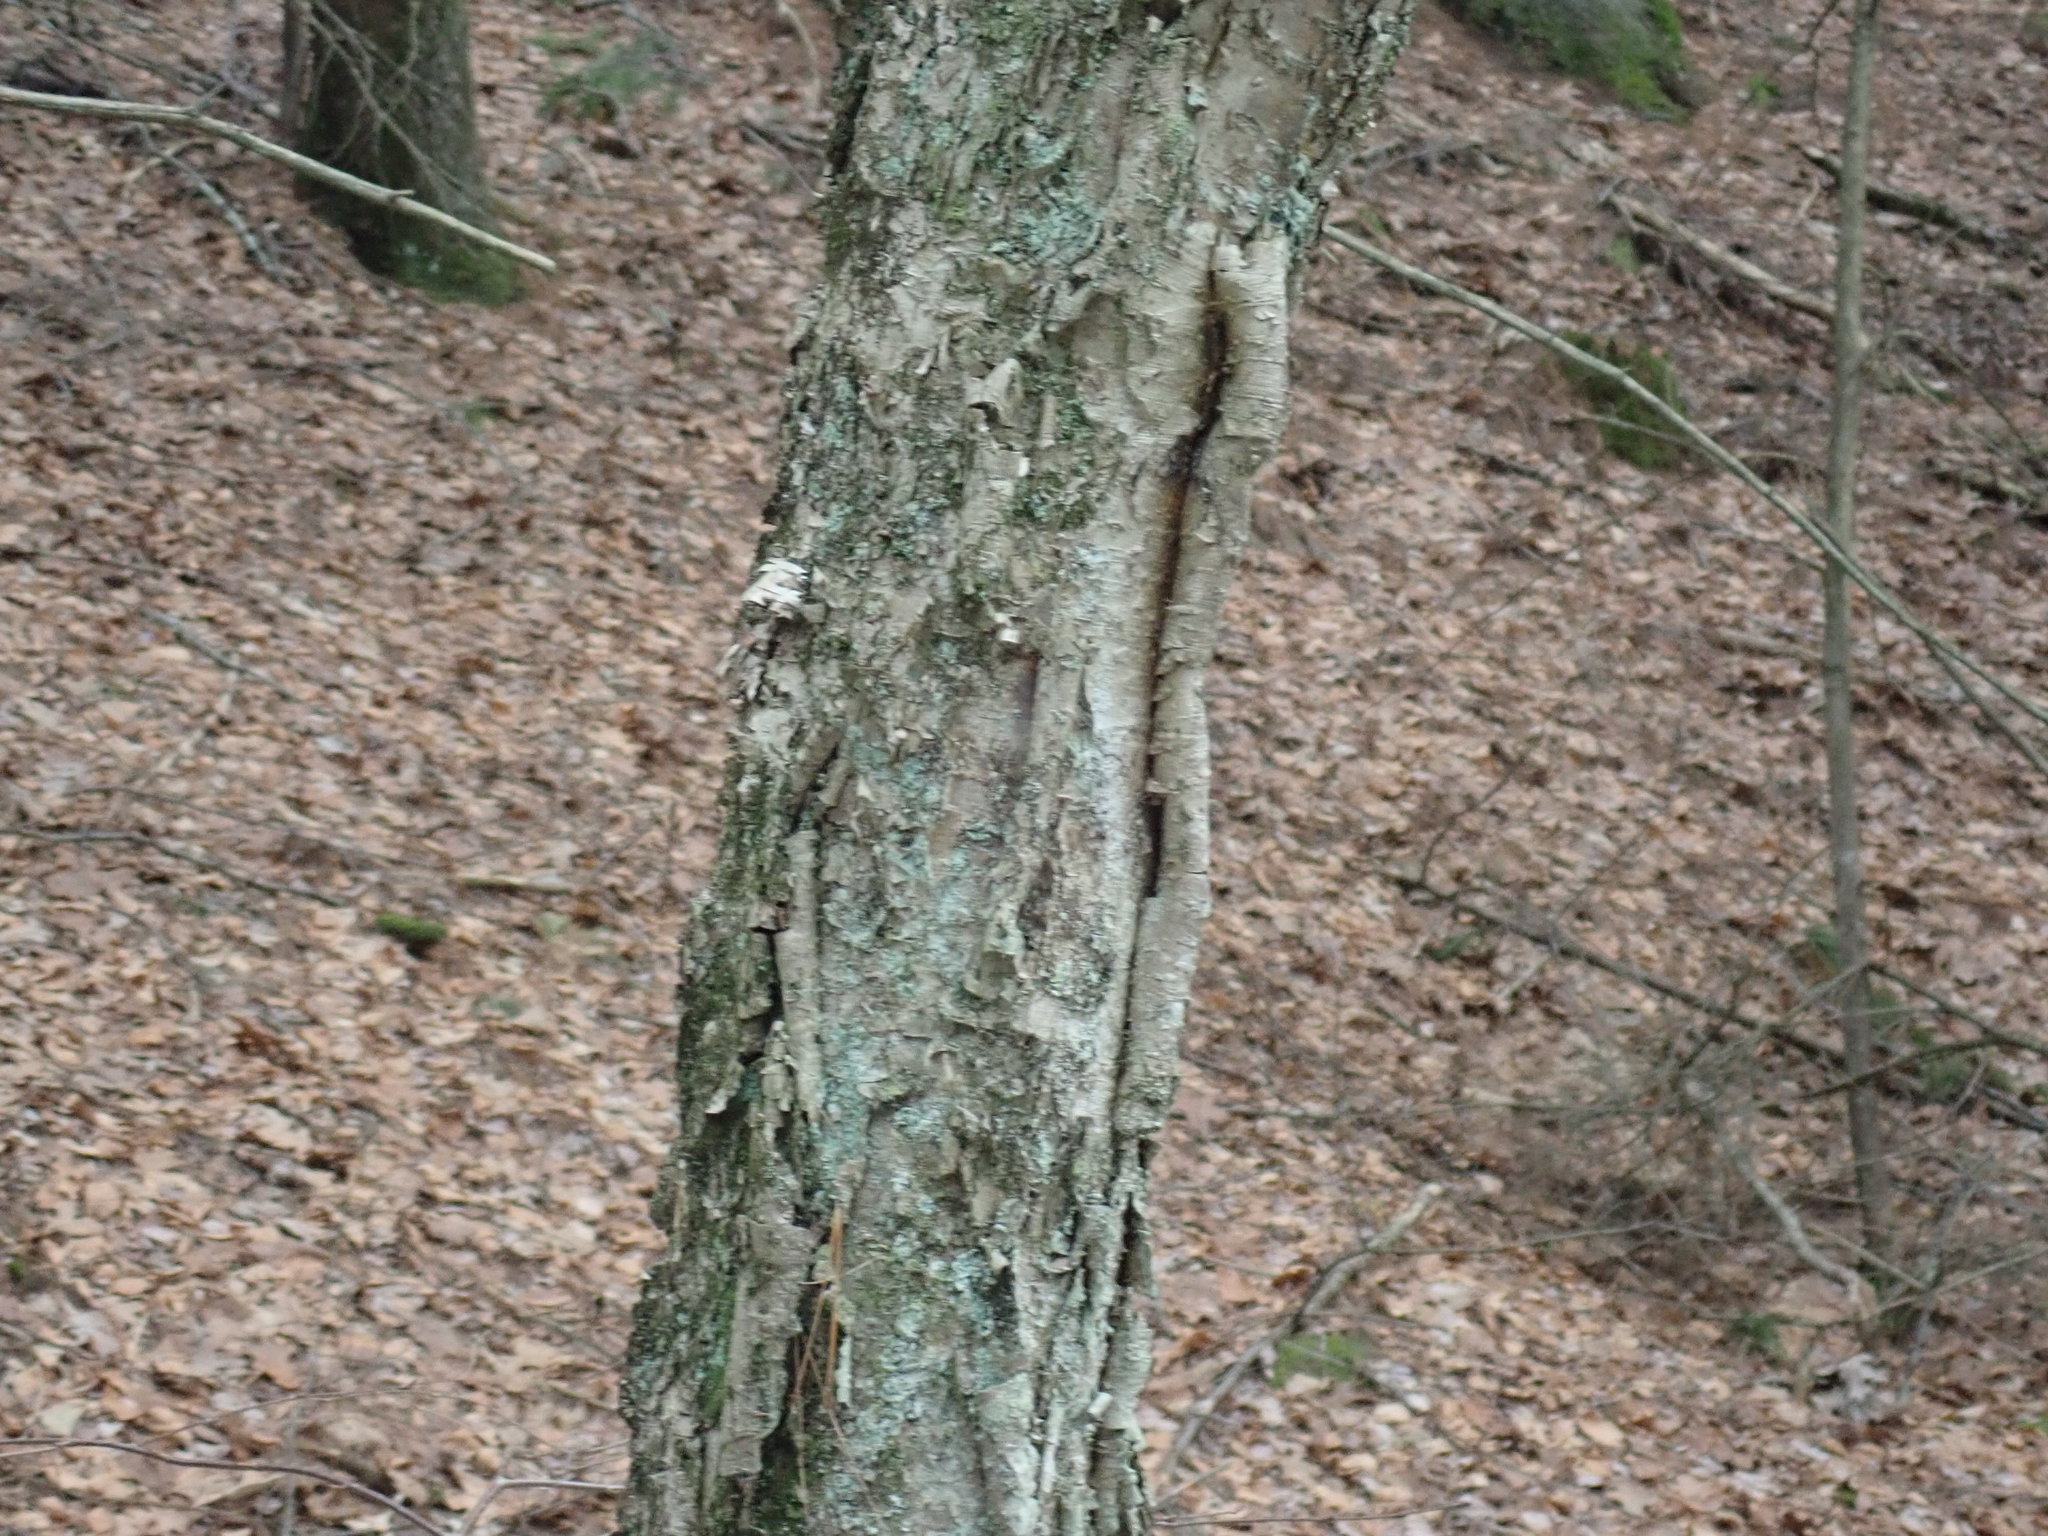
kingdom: Plantae
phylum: Tracheophyta
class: Magnoliopsida
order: Fagales
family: Betulaceae
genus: Betula
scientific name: Betula alleghaniensis
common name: Yellow birch
